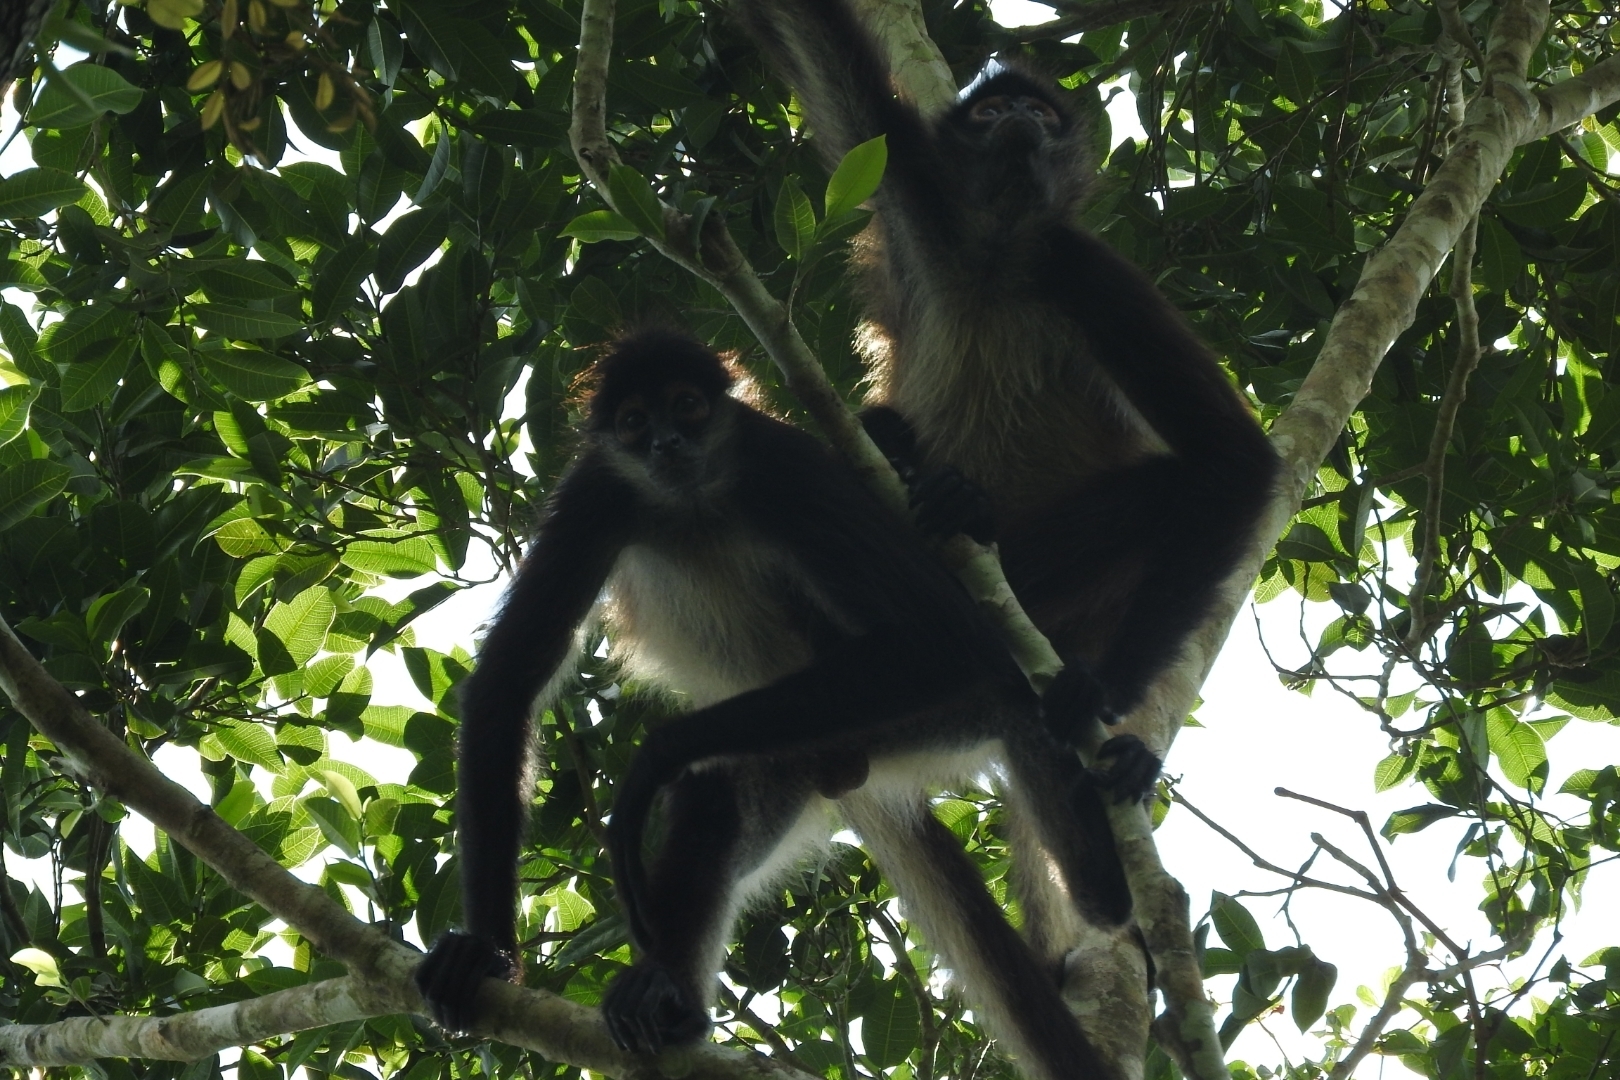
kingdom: Animalia
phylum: Chordata
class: Mammalia
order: Primates
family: Atelidae
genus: Ateles
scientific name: Ateles geoffroyi
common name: Black-handed spider monkey
